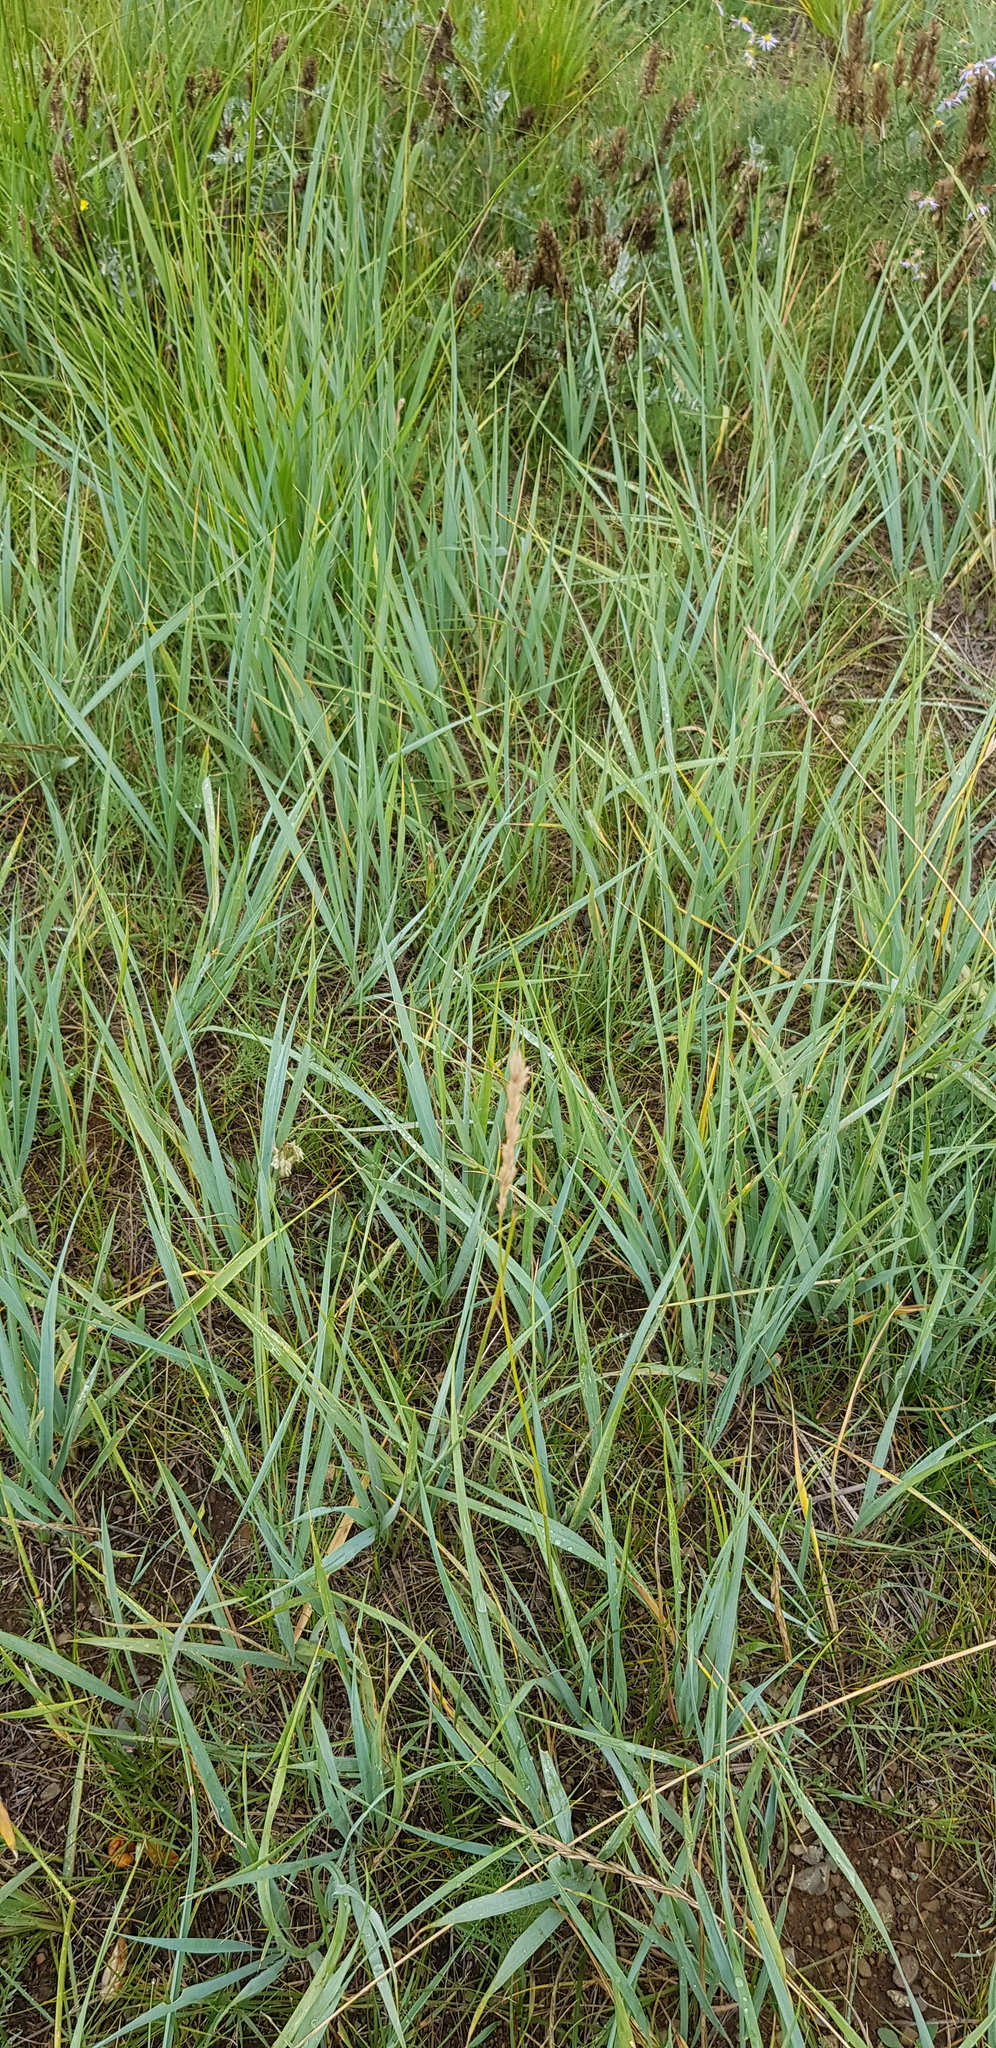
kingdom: Plantae
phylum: Tracheophyta
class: Liliopsida
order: Poales
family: Poaceae
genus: Leymus
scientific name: Leymus chinensis
